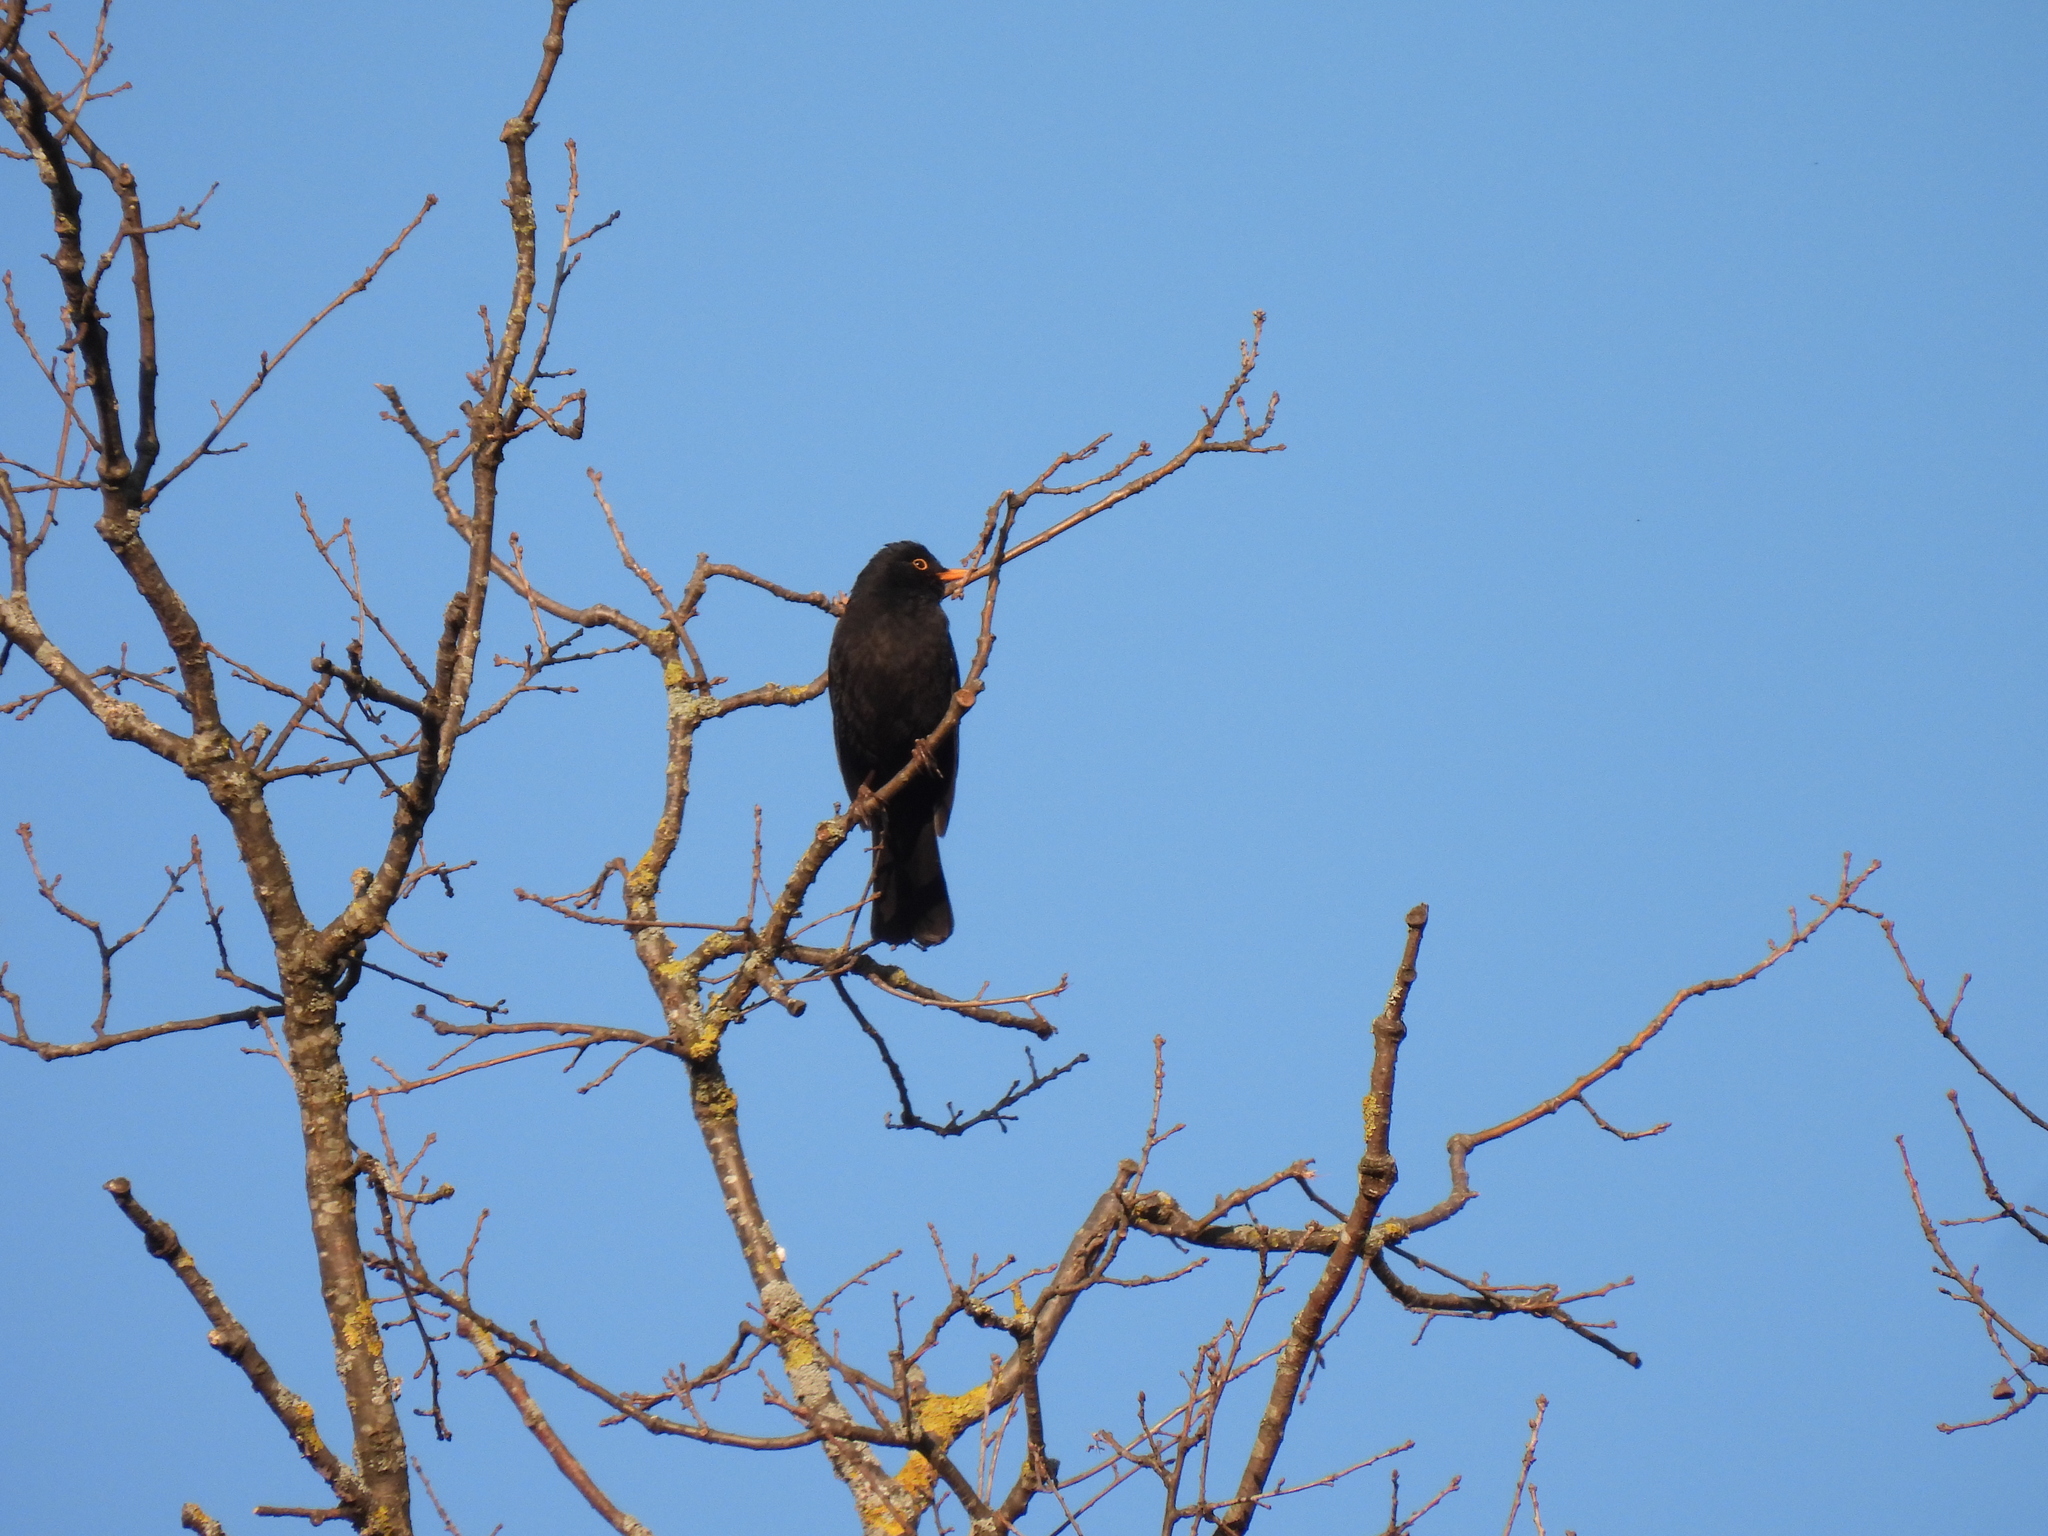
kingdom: Animalia
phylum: Chordata
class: Aves
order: Passeriformes
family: Turdidae
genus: Turdus
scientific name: Turdus merula
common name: Common blackbird
